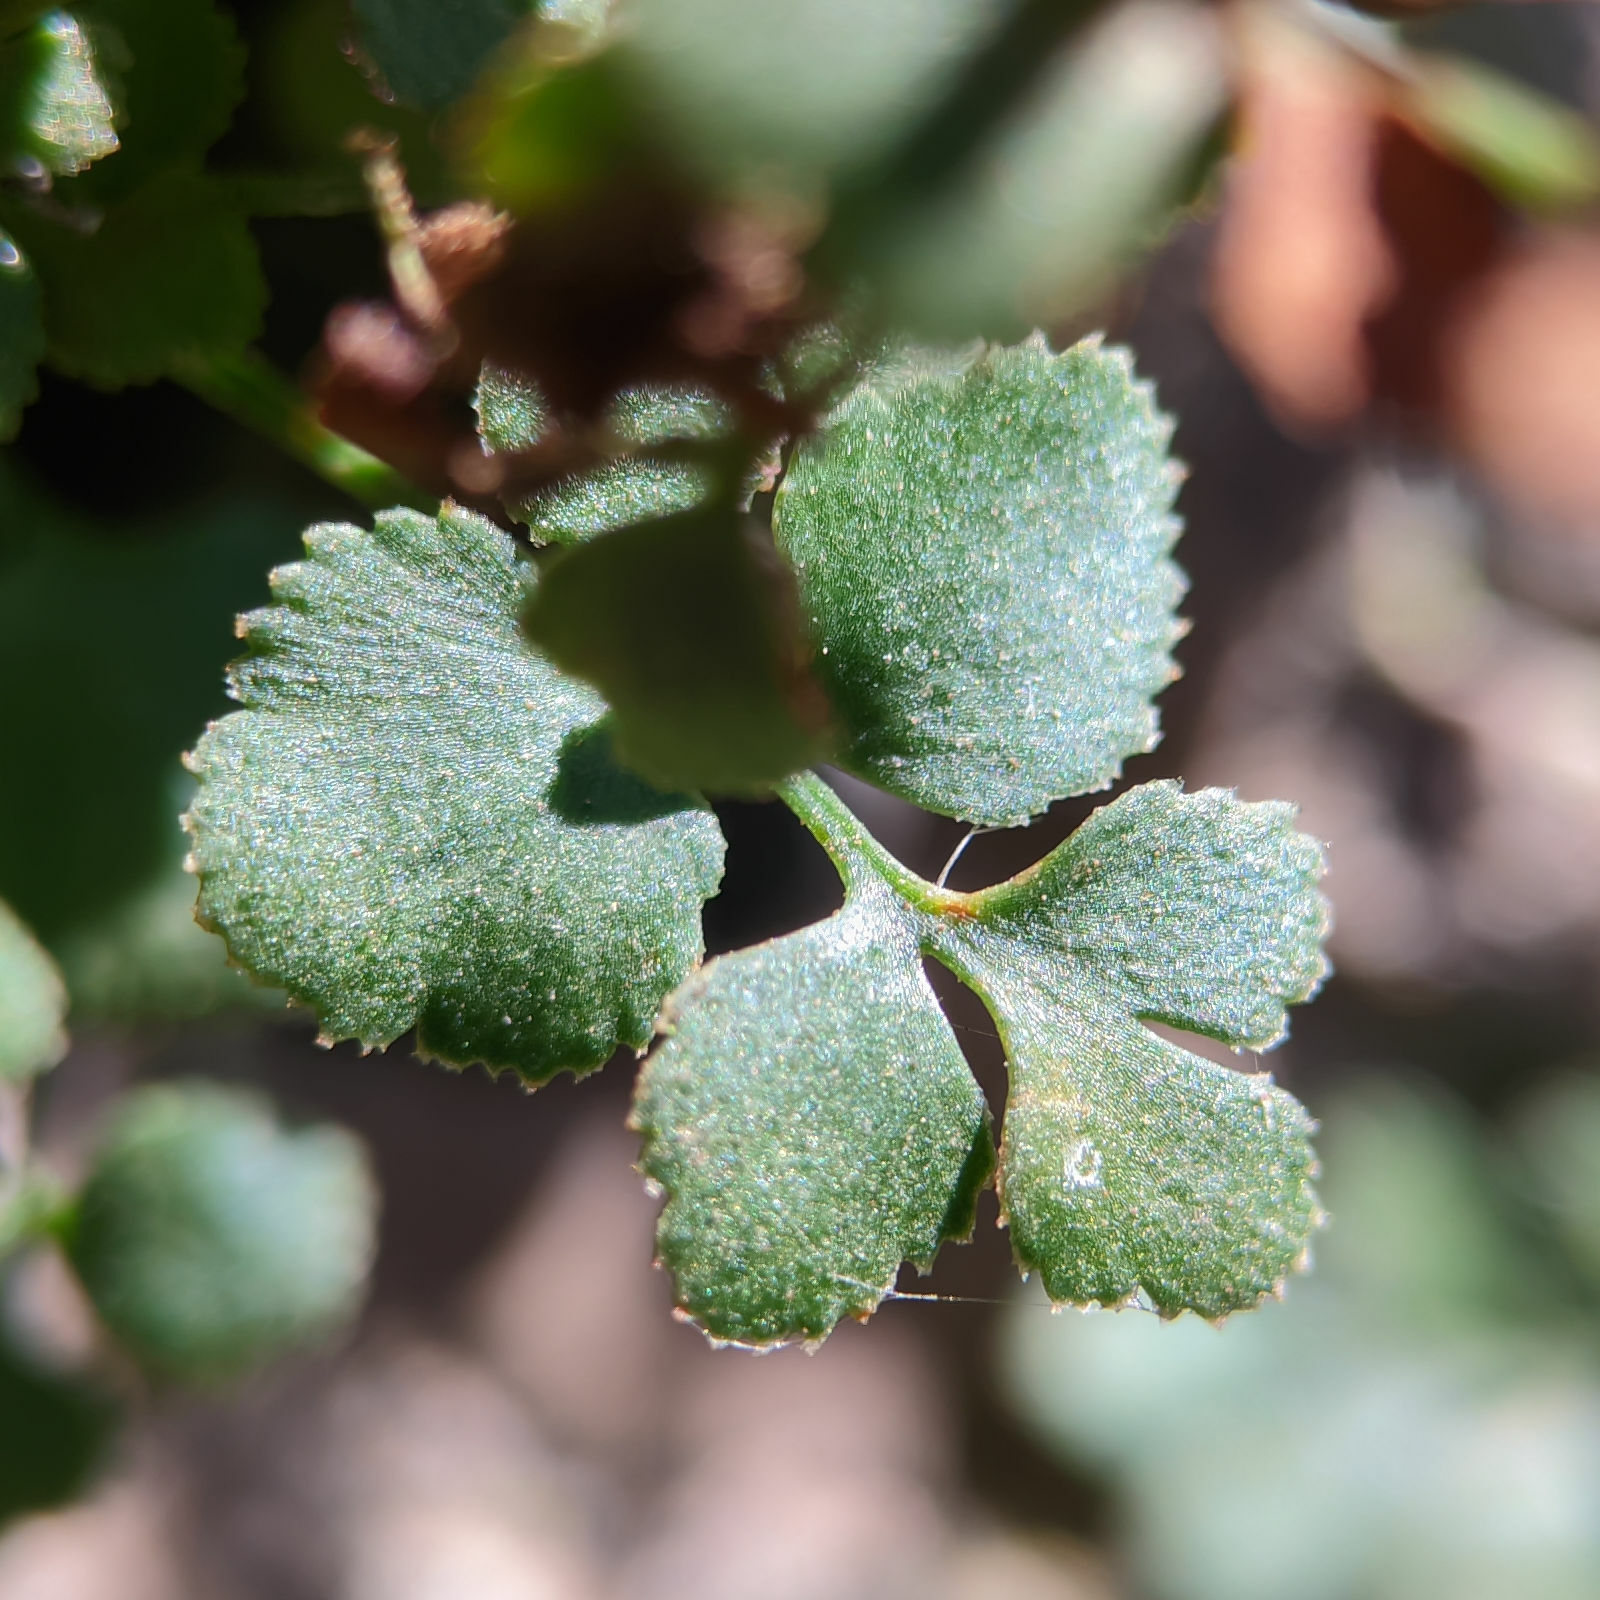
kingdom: Plantae
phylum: Tracheophyta
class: Polypodiopsida
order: Polypodiales
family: Aspleniaceae
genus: Asplenium
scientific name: Asplenium ruta-muraria
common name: Wall-rue
